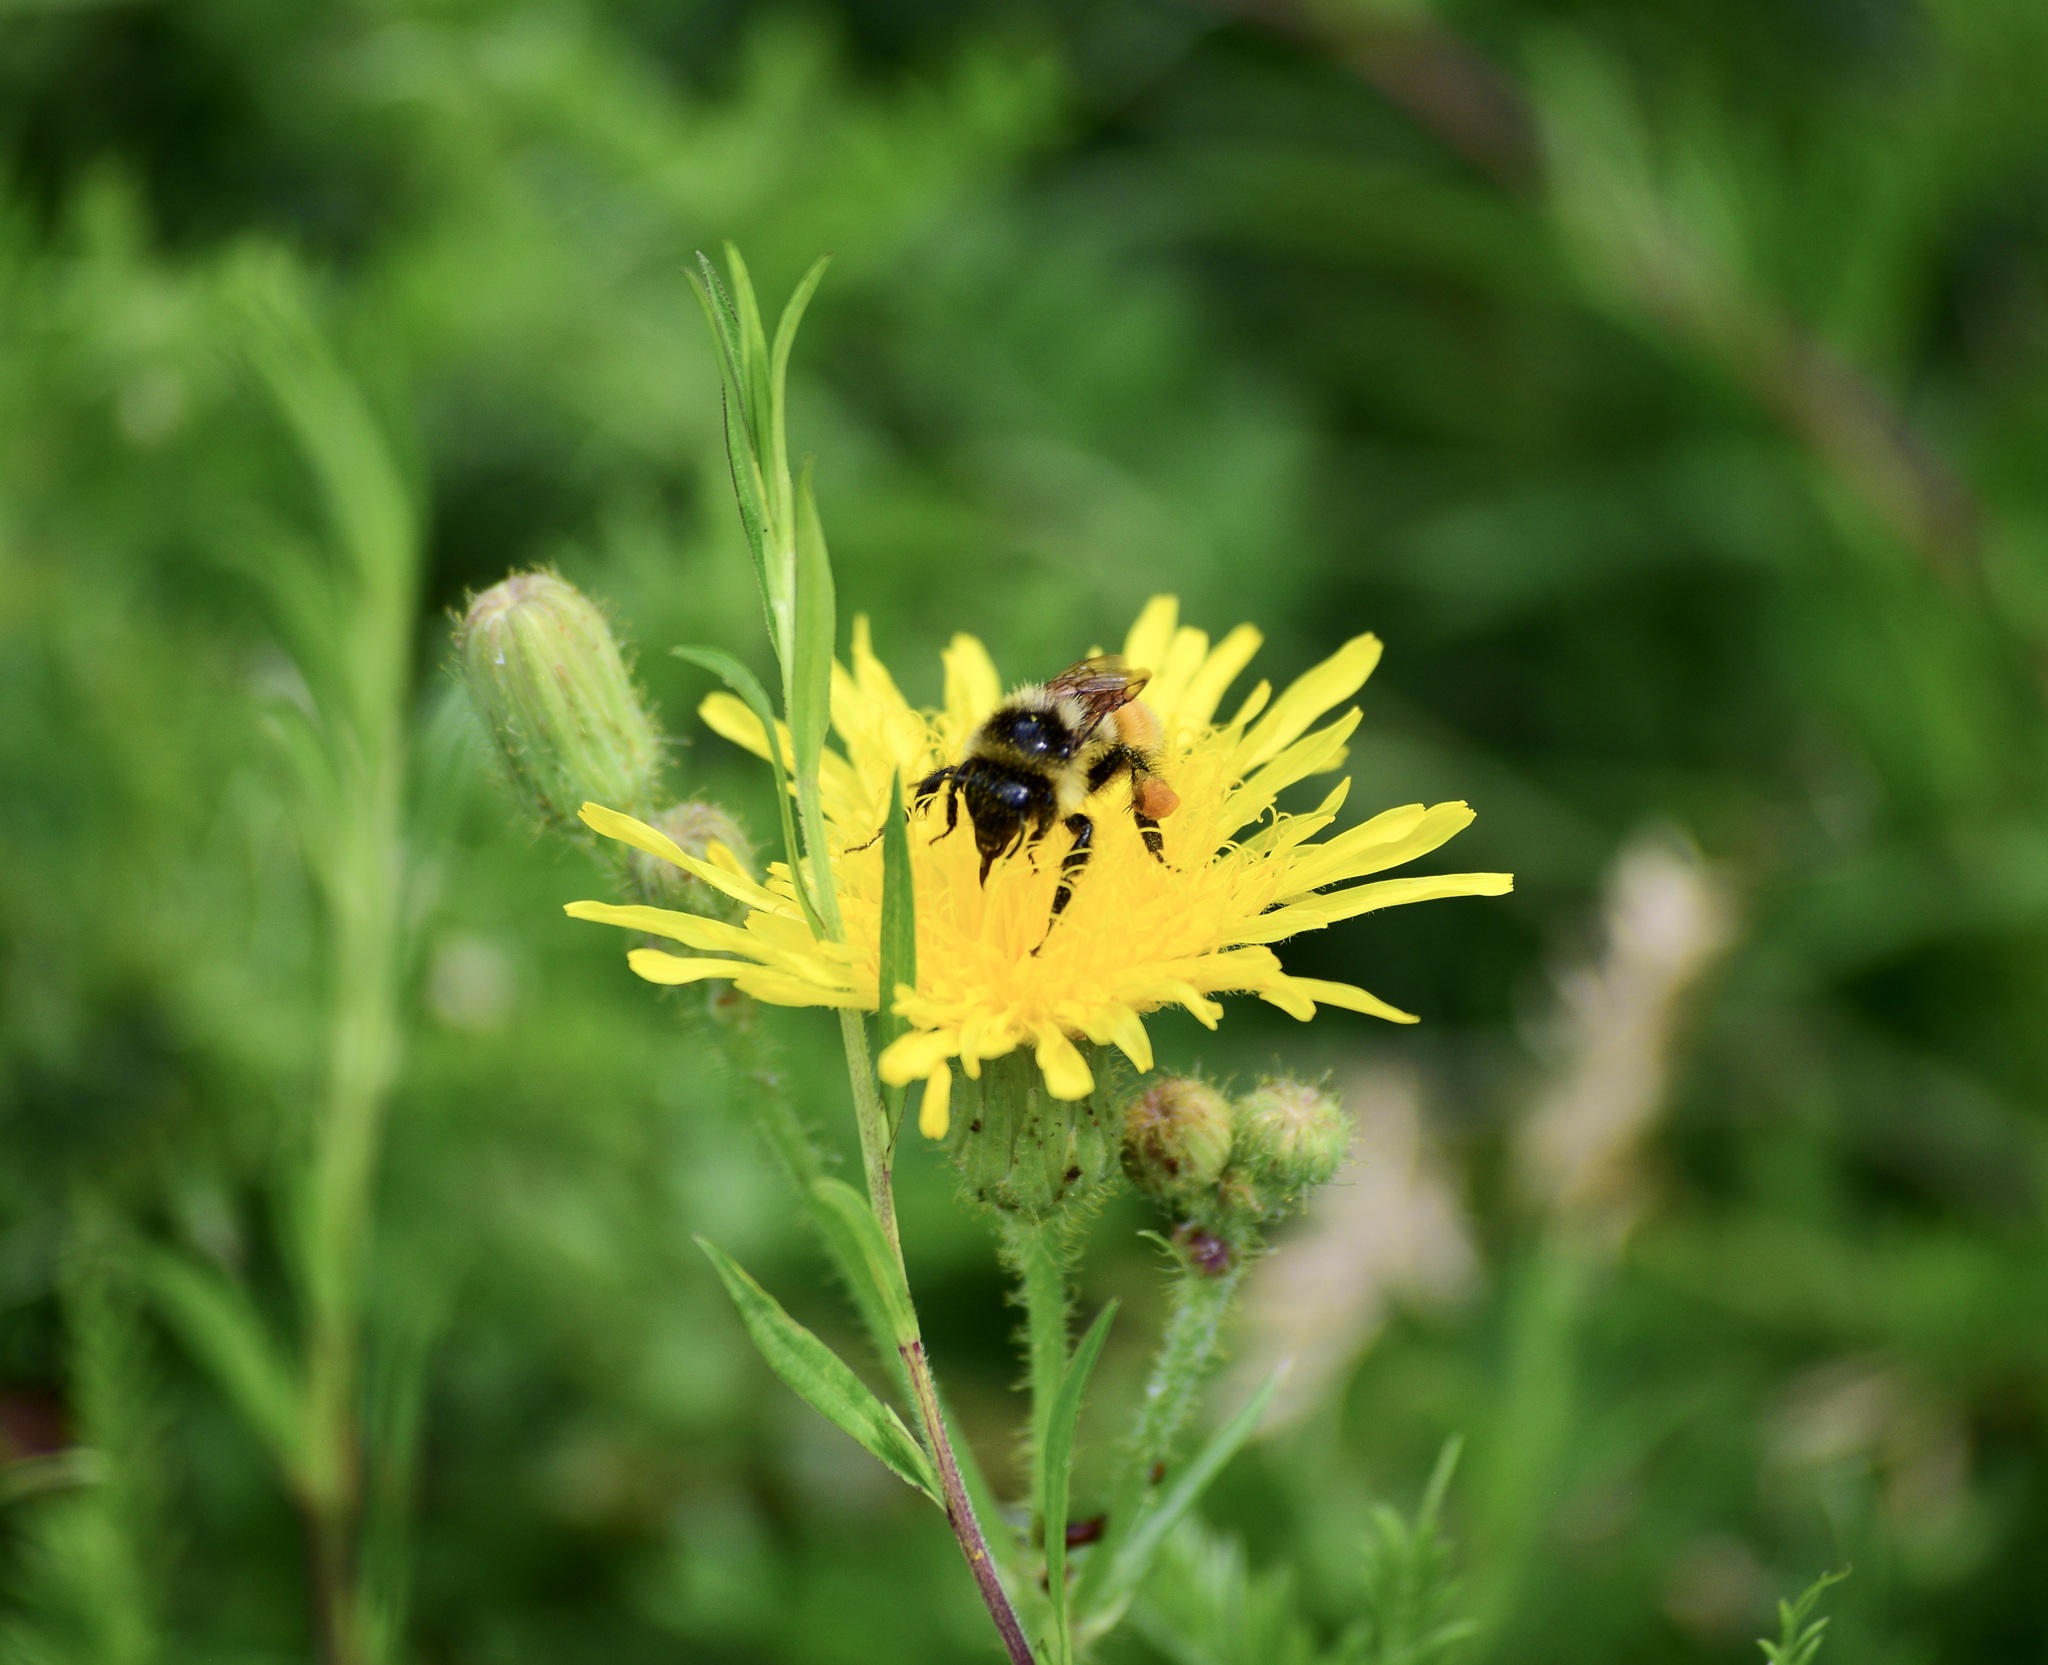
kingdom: Animalia
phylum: Arthropoda
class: Insecta
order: Hymenoptera
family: Apidae
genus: Bombus
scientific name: Bombus ternarius
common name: Tri-colored bumble bee
